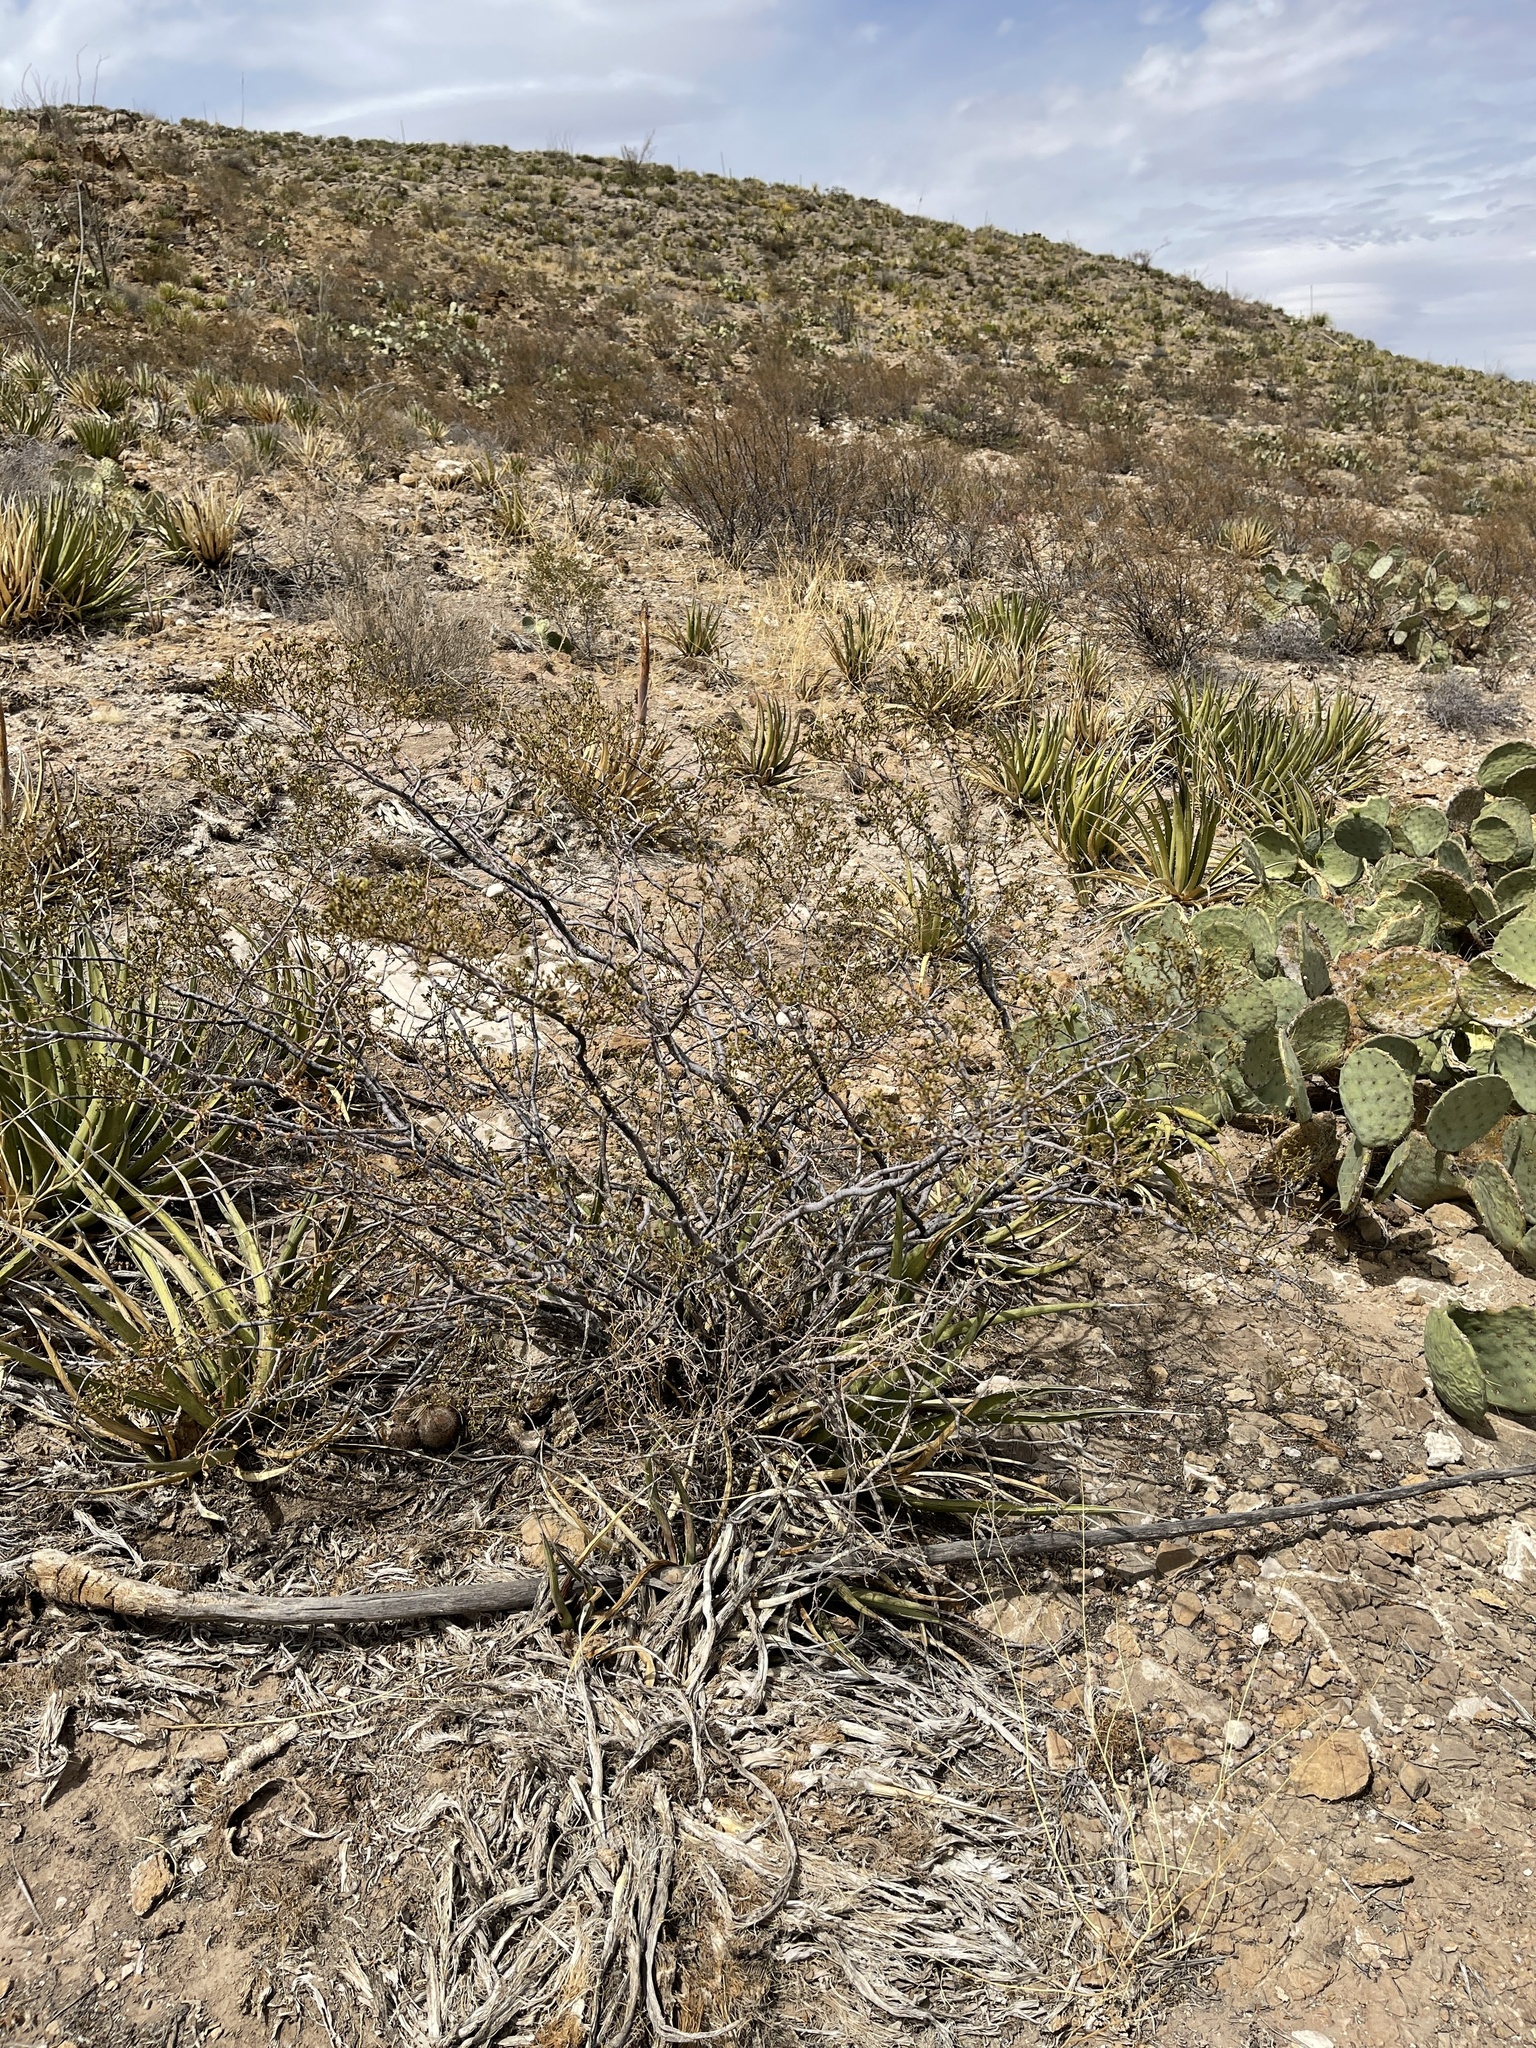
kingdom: Plantae
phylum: Tracheophyta
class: Magnoliopsida
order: Zygophyllales
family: Zygophyllaceae
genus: Larrea
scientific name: Larrea tridentata
